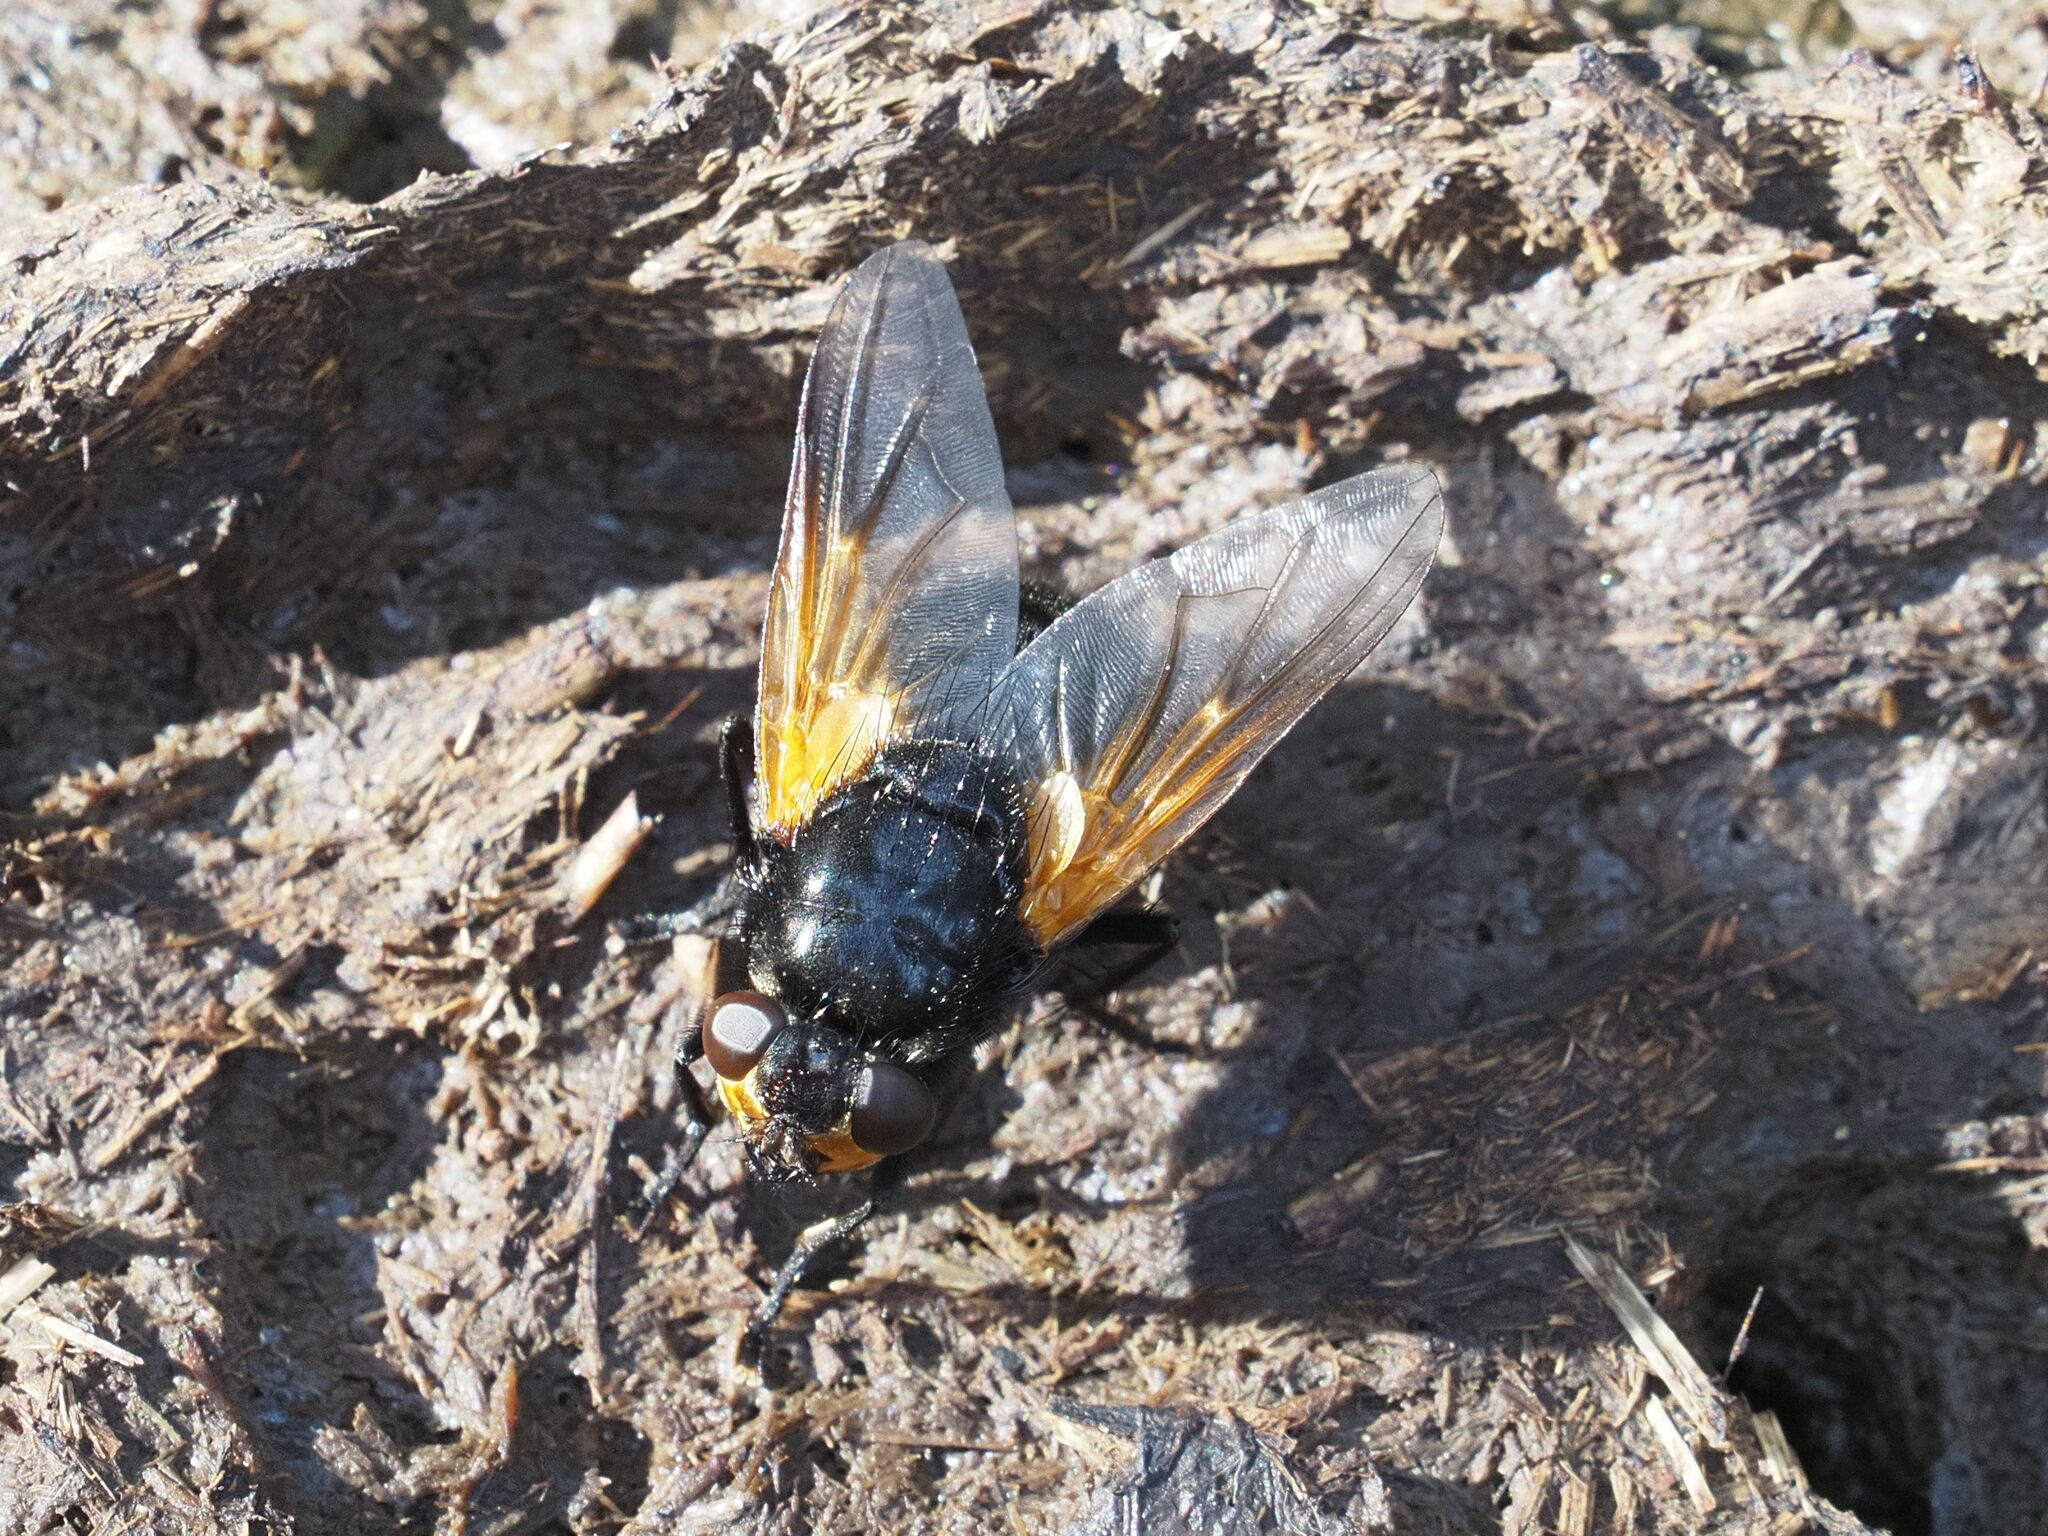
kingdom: Animalia
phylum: Arthropoda
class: Insecta
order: Diptera
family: Muscidae
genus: Mesembrina
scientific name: Mesembrina meridiana
